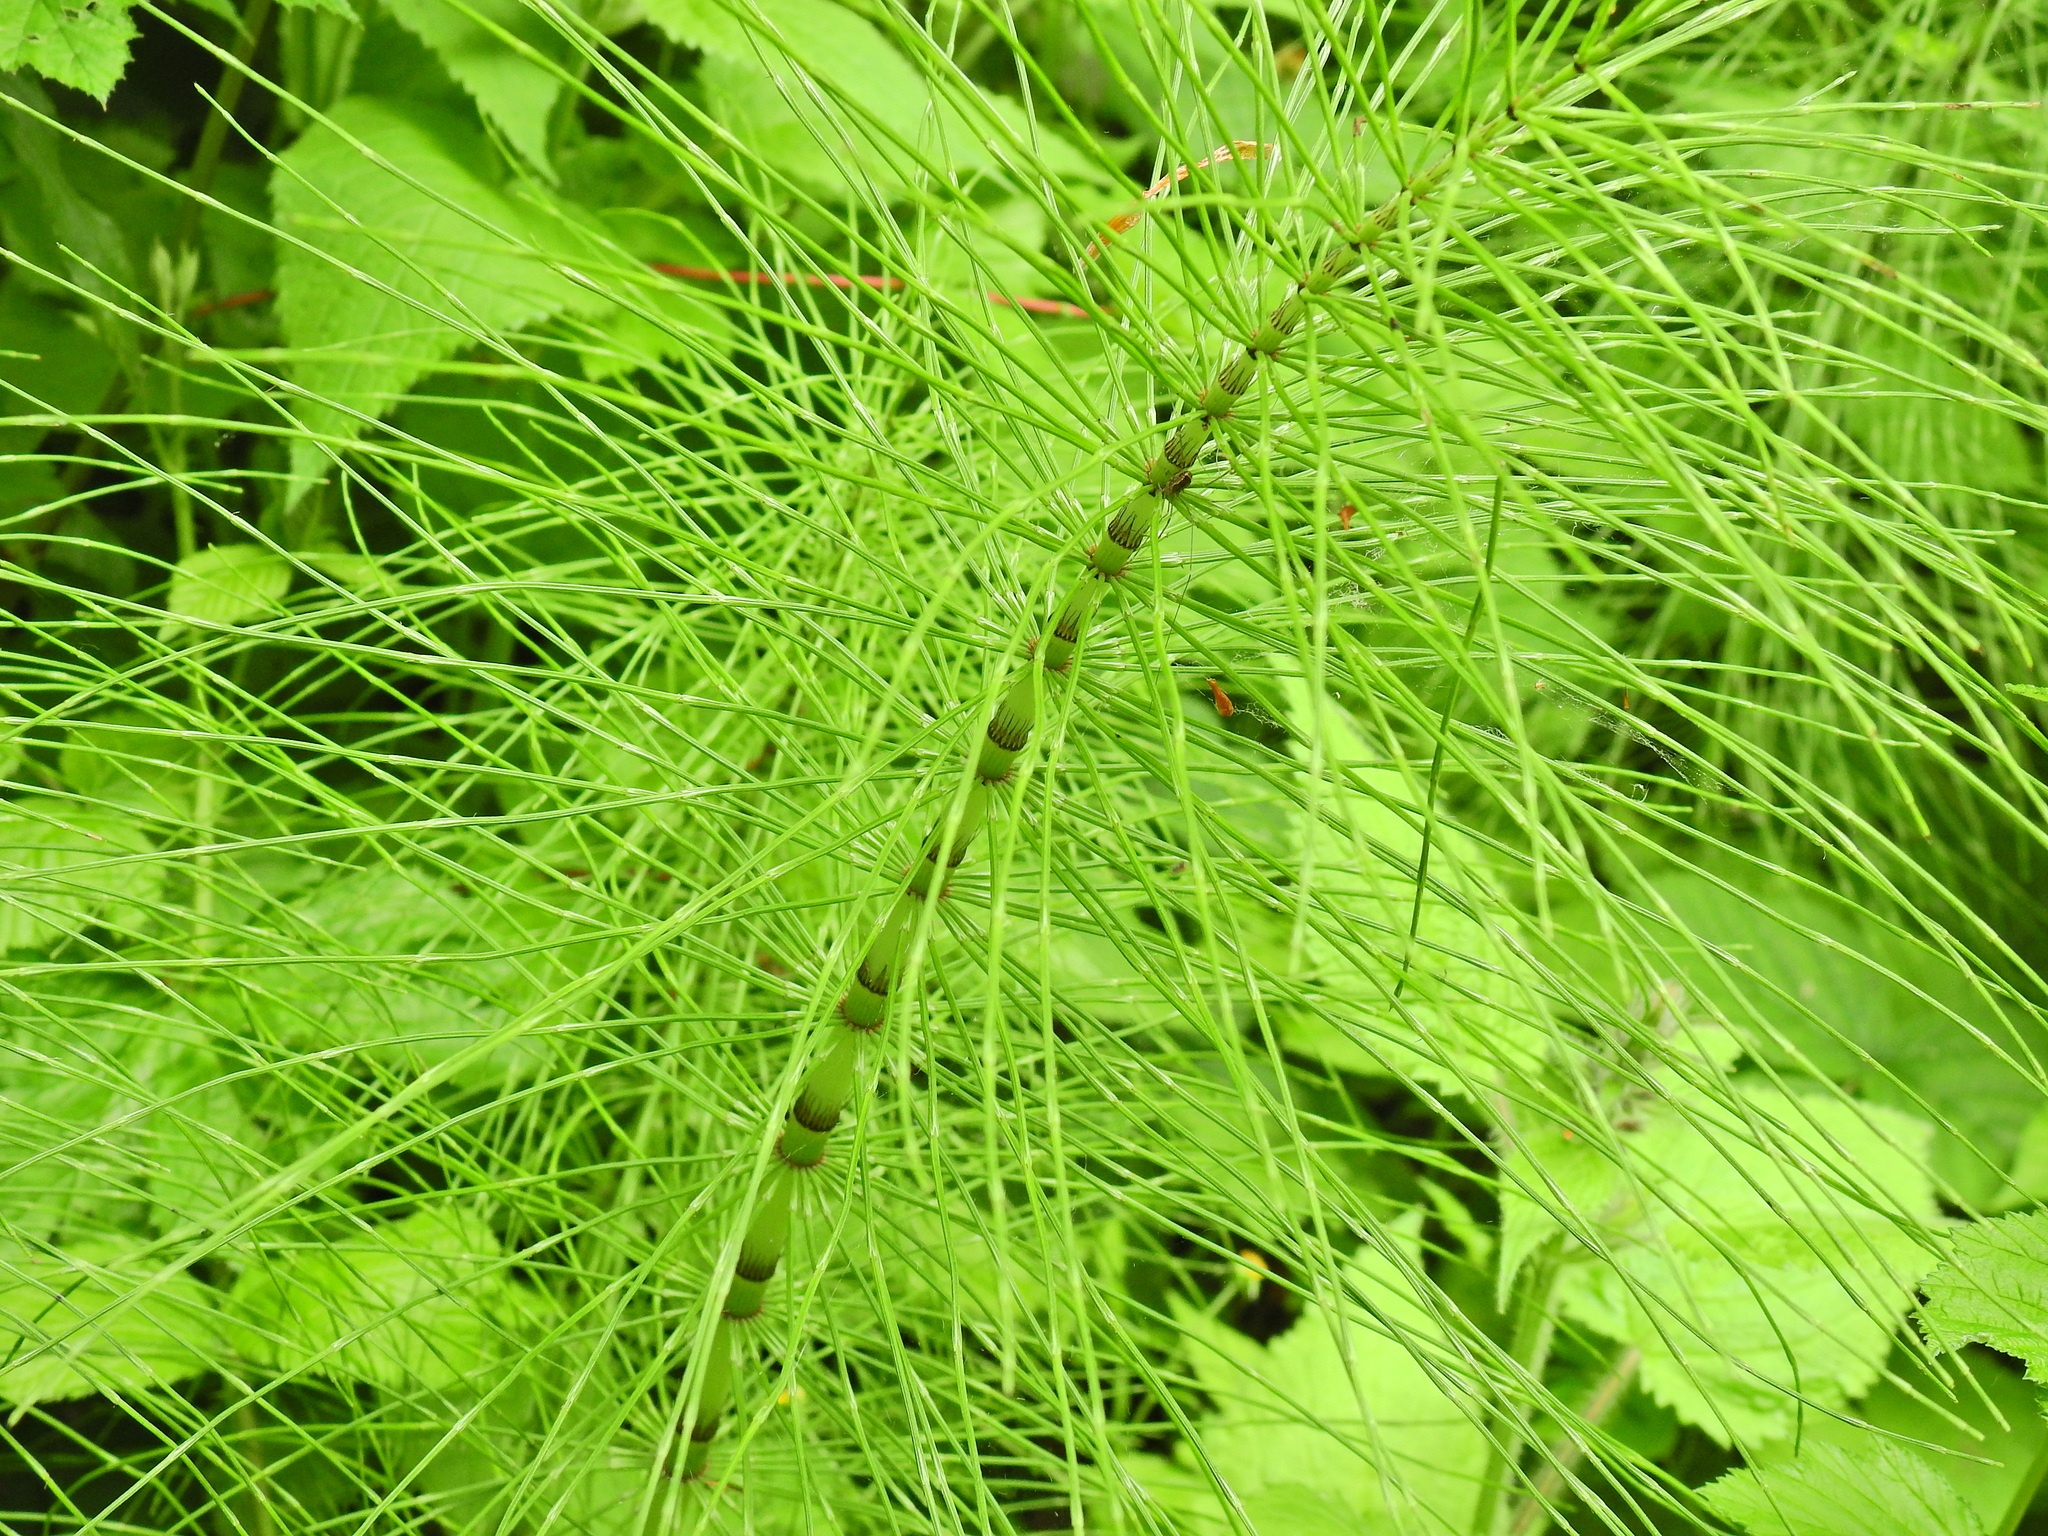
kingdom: Plantae
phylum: Tracheophyta
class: Polypodiopsida
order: Equisetales
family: Equisetaceae
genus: Equisetum
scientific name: Equisetum telmateia
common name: Great horsetail
